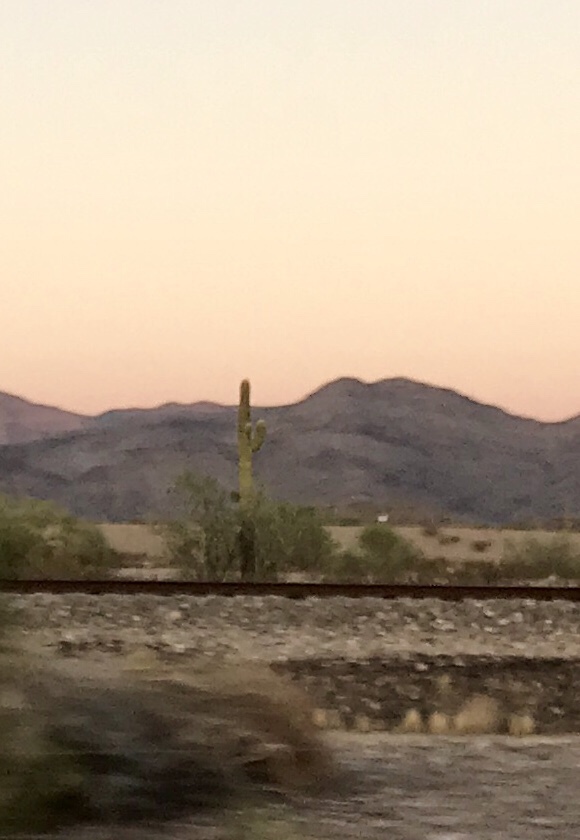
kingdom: Plantae
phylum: Tracheophyta
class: Magnoliopsida
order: Caryophyllales
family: Cactaceae
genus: Carnegiea
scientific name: Carnegiea gigantea
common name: Saguaro
